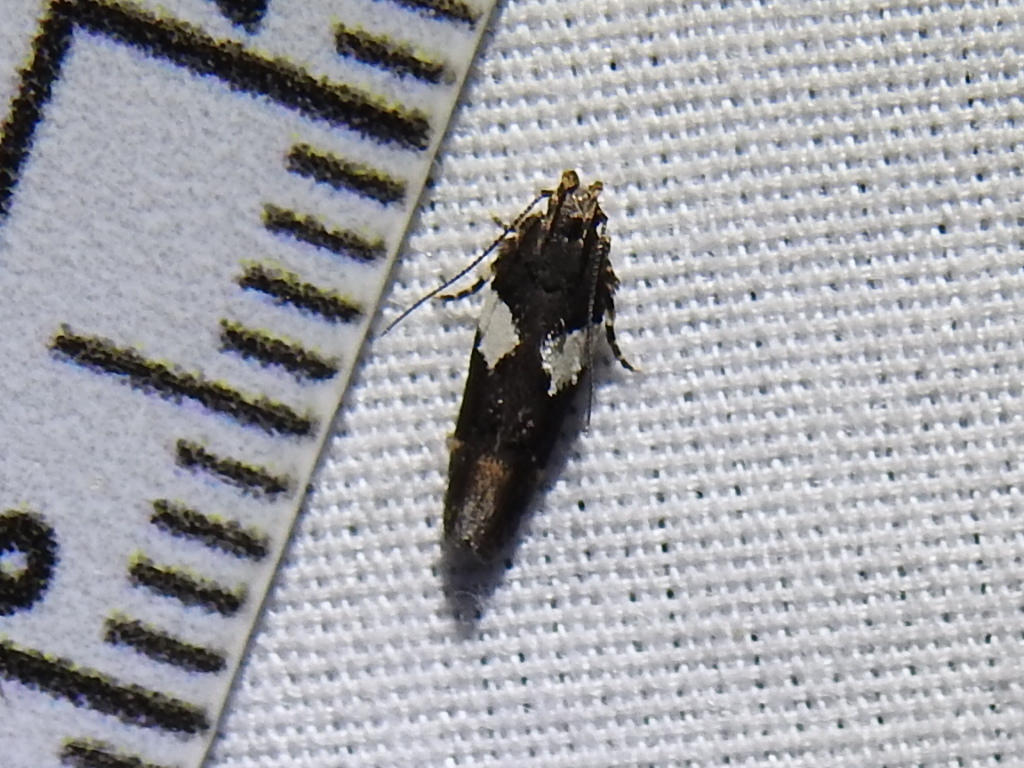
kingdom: Animalia
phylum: Arthropoda
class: Insecta
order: Lepidoptera
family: Gelechiidae
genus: Friseria
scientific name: Friseria acaciella
